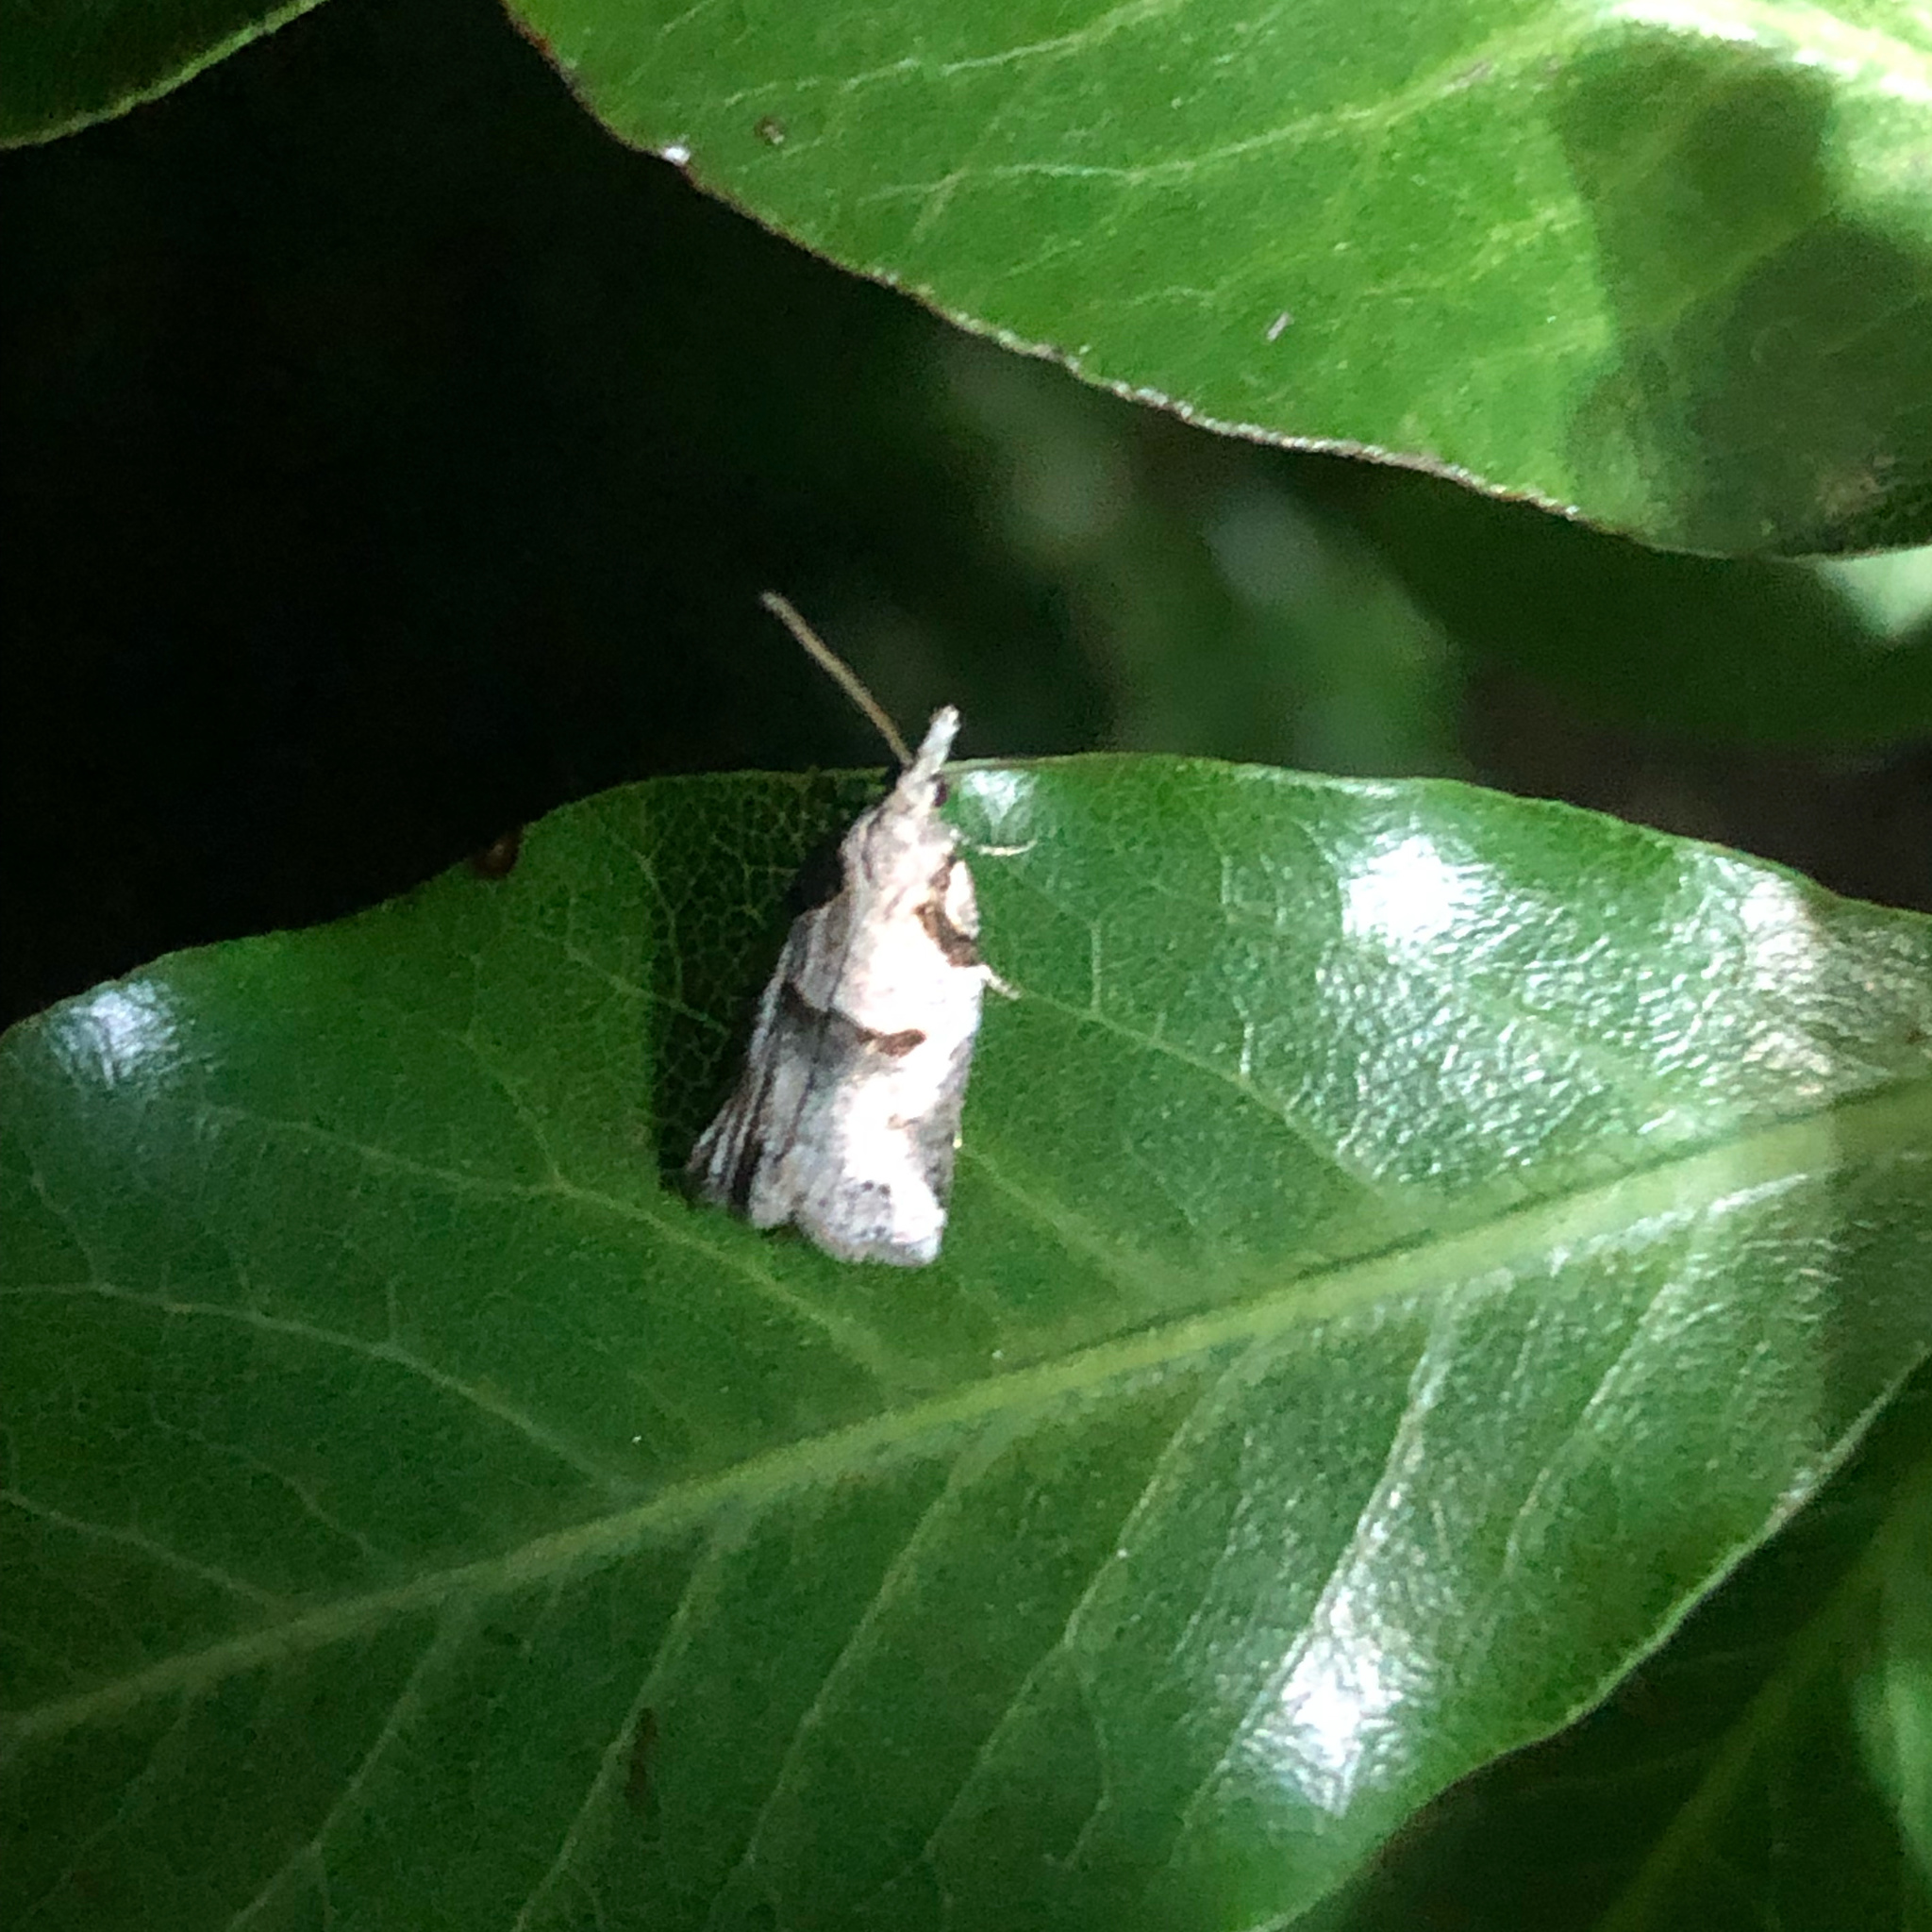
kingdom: Animalia
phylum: Arthropoda
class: Insecta
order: Lepidoptera
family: Tortricidae
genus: Harmologa
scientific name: Harmologa amplexana
